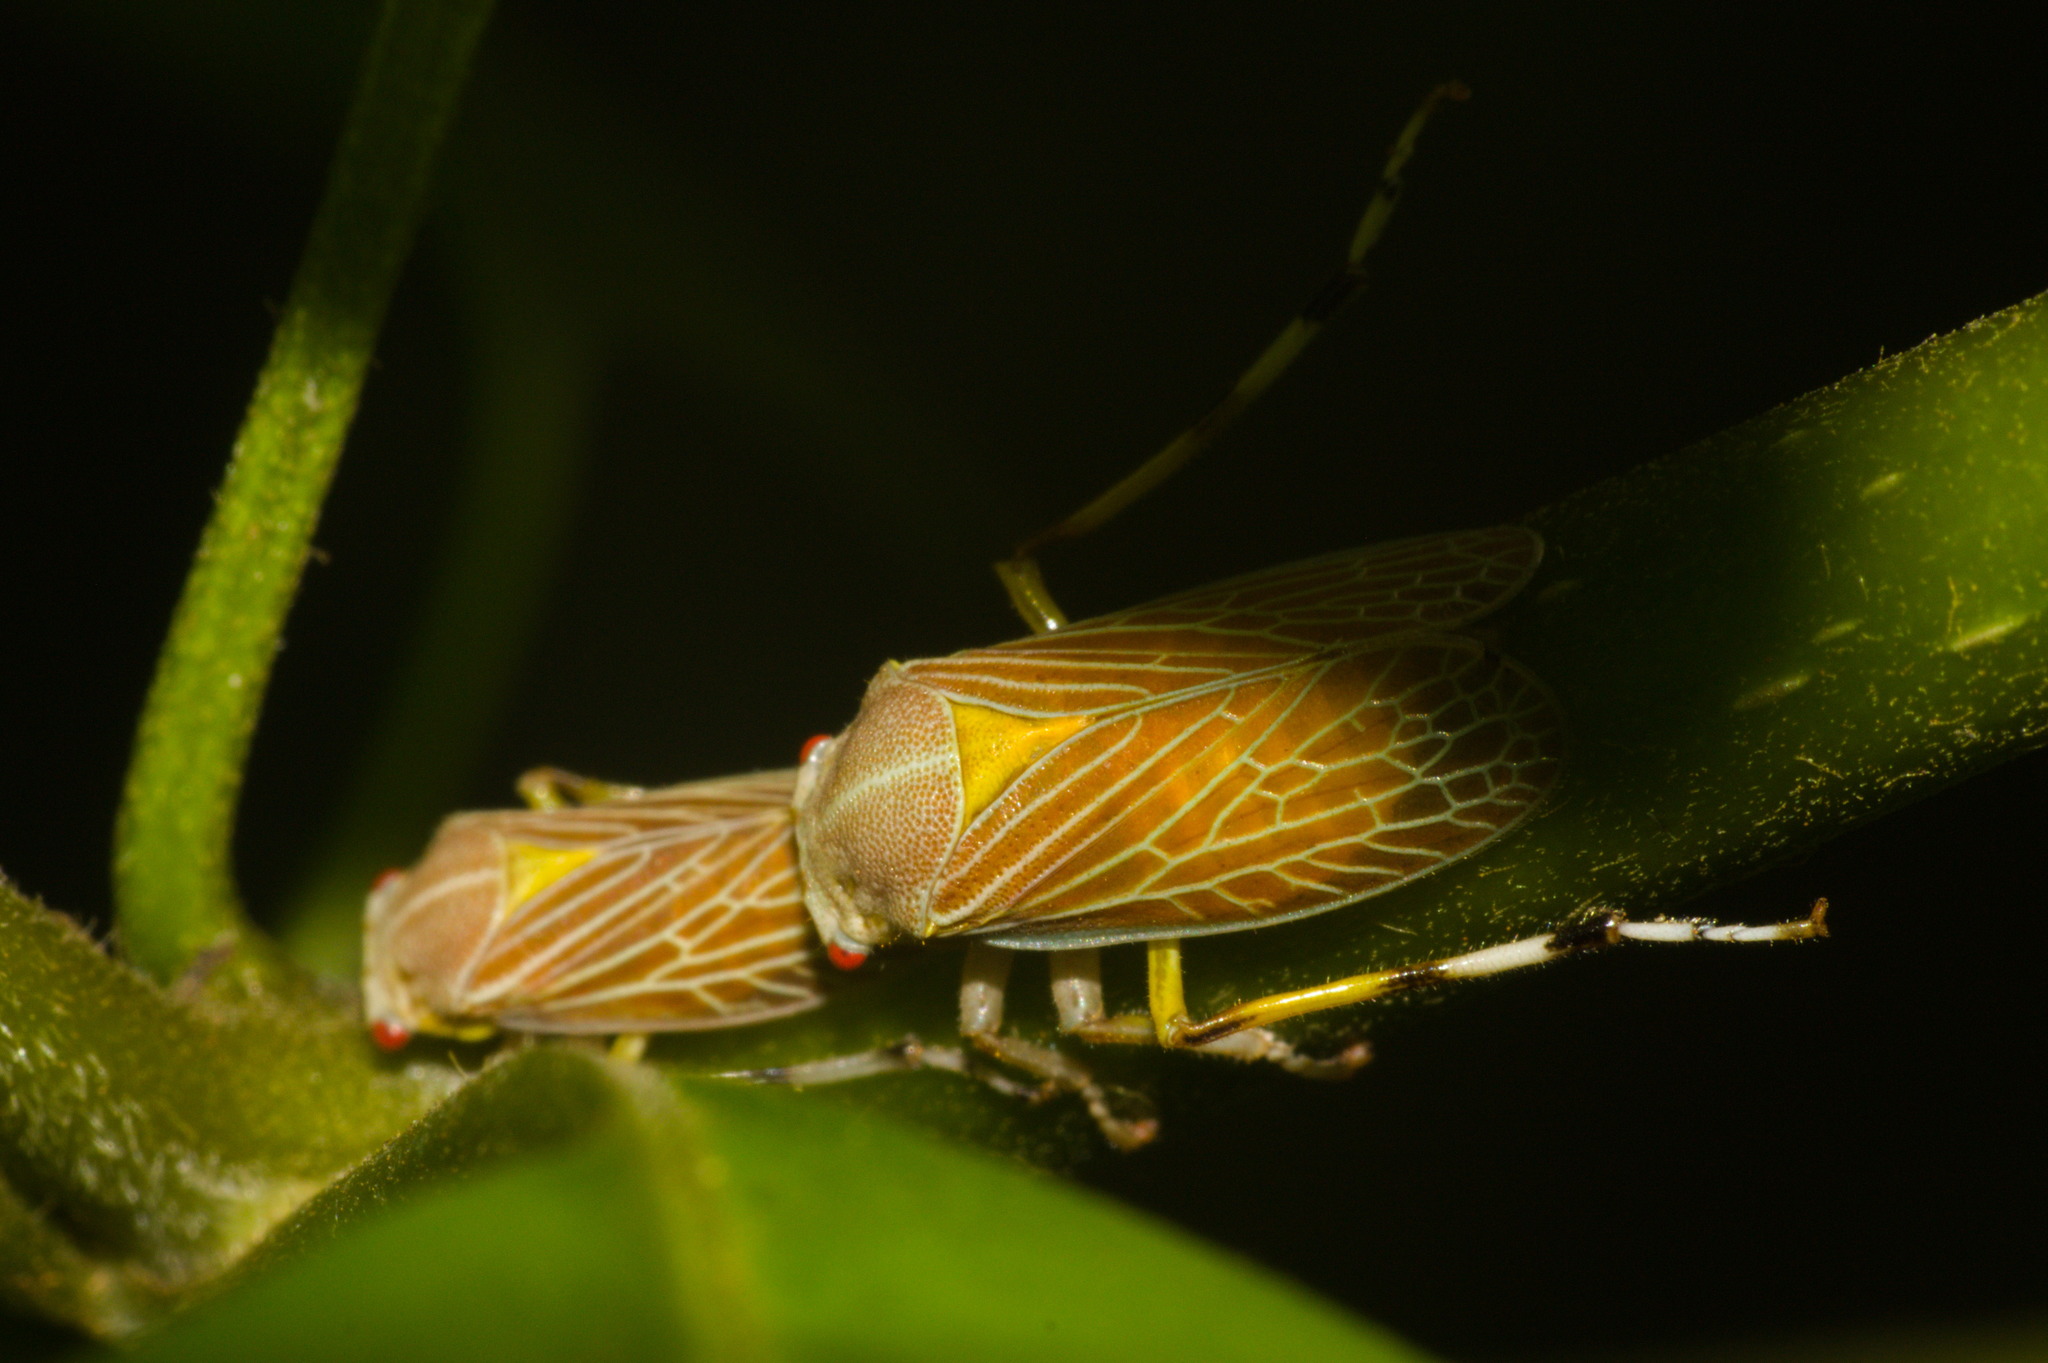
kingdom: Animalia
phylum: Arthropoda
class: Insecta
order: Hemiptera
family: Aetalionidae
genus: Aetalion
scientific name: Aetalion reticulatum
